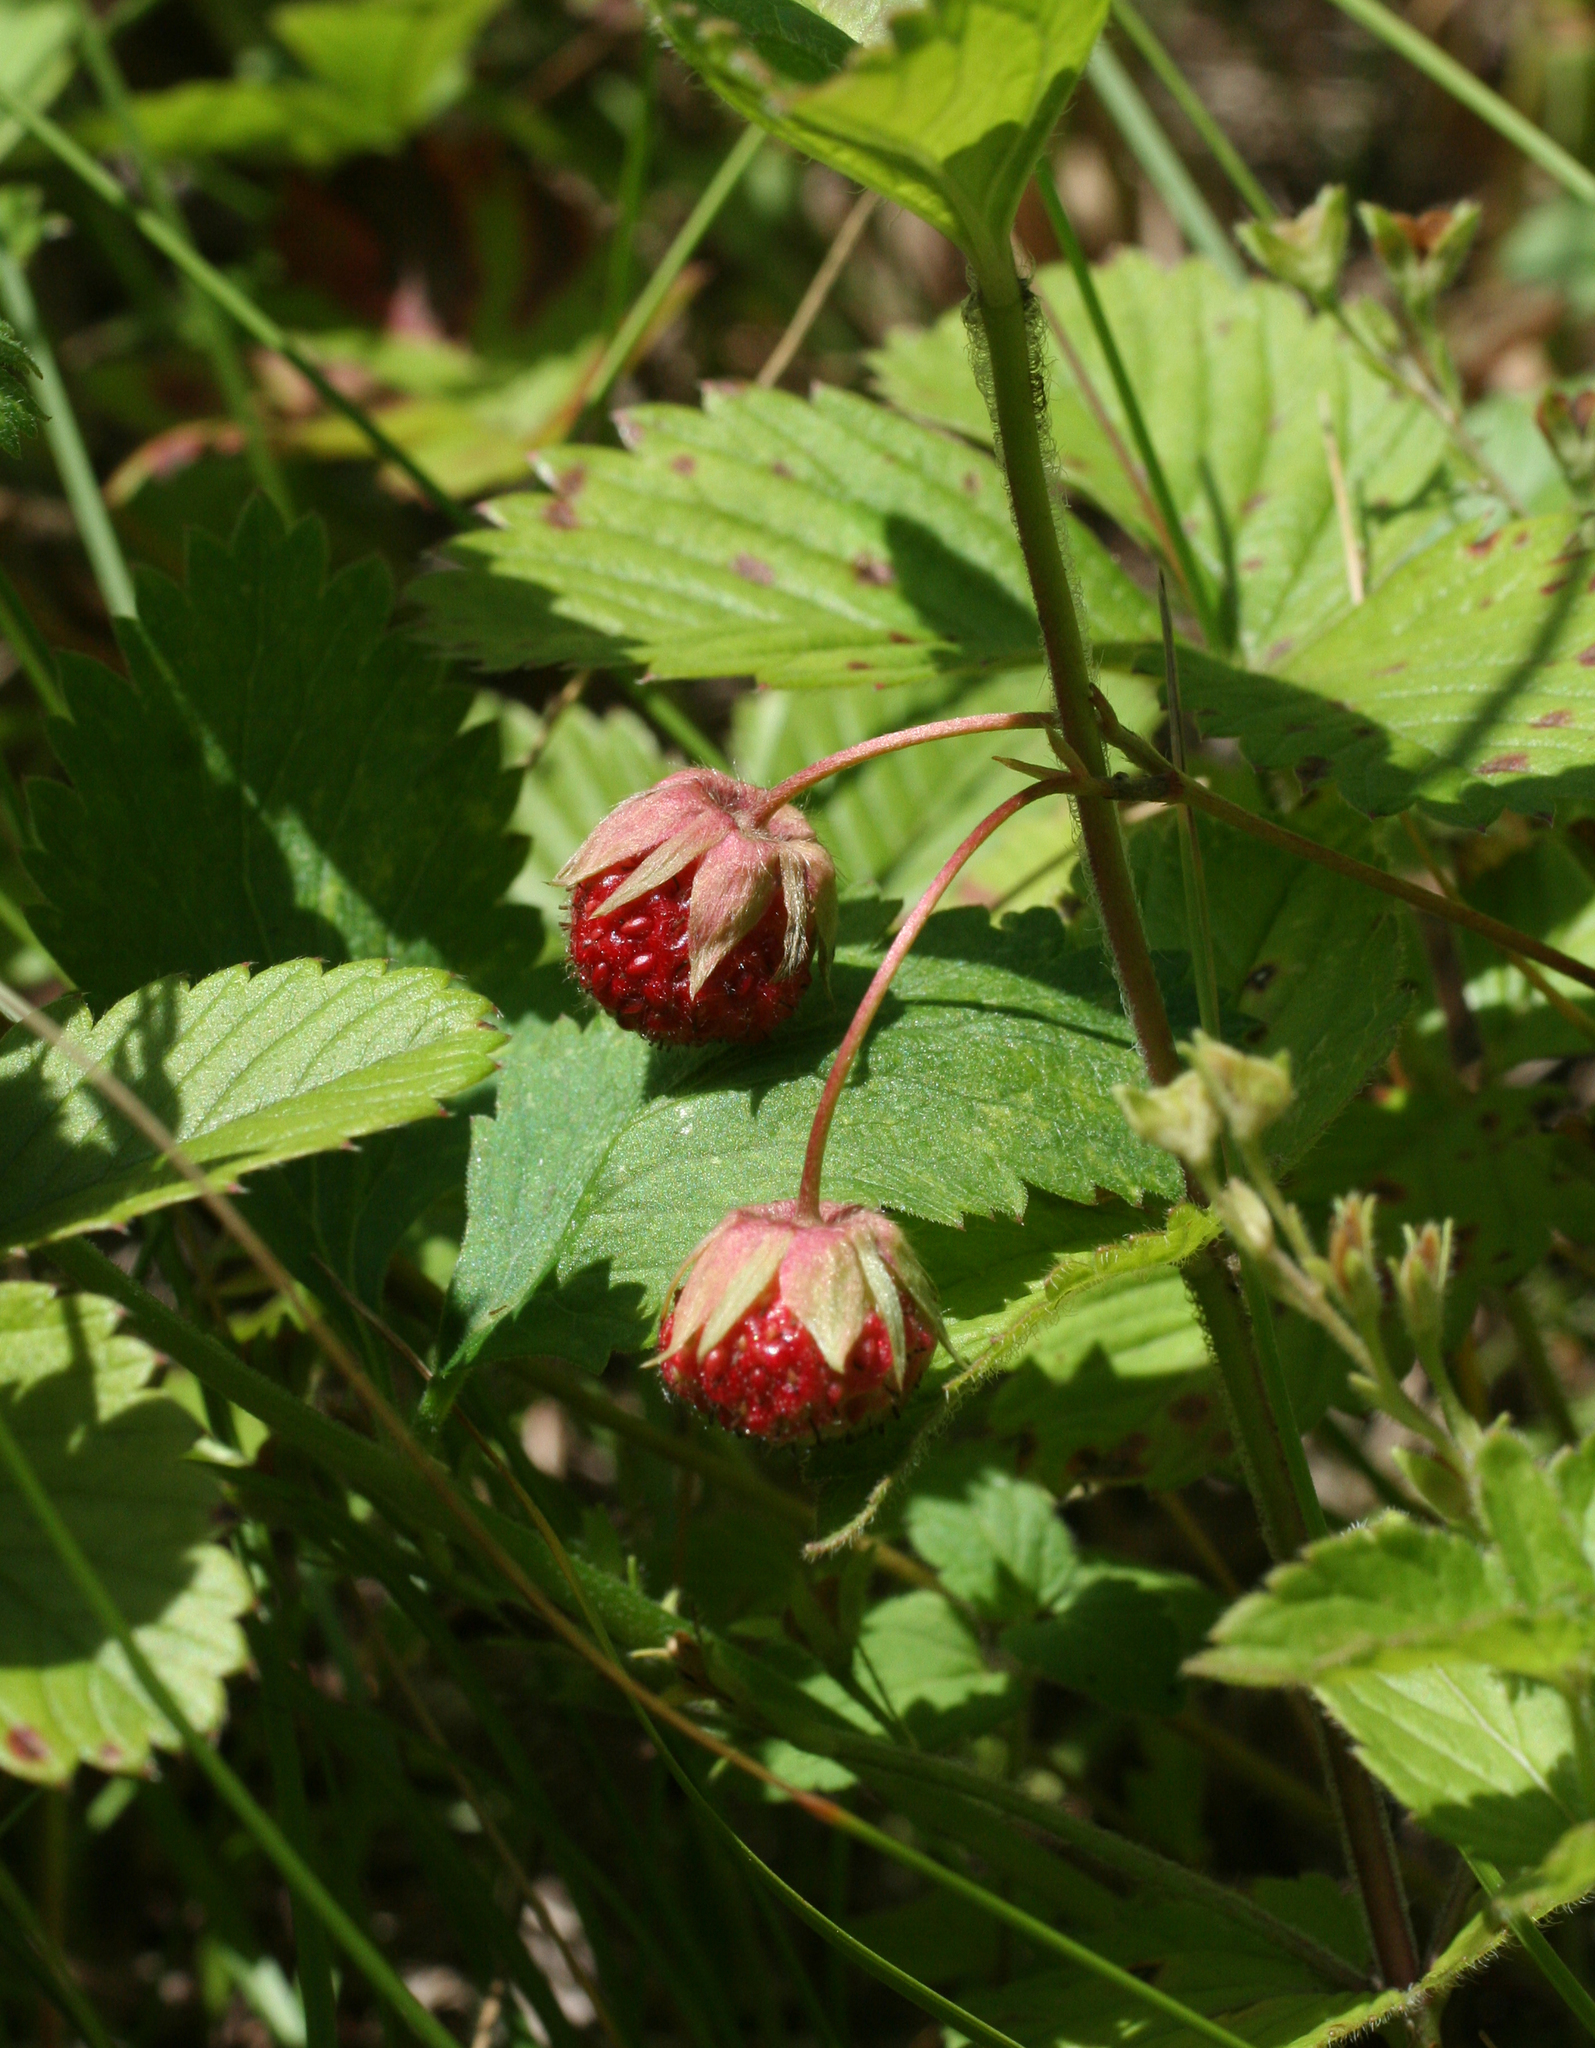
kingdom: Plantae
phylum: Tracheophyta
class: Magnoliopsida
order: Rosales
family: Rosaceae
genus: Fragaria
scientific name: Fragaria viridis
